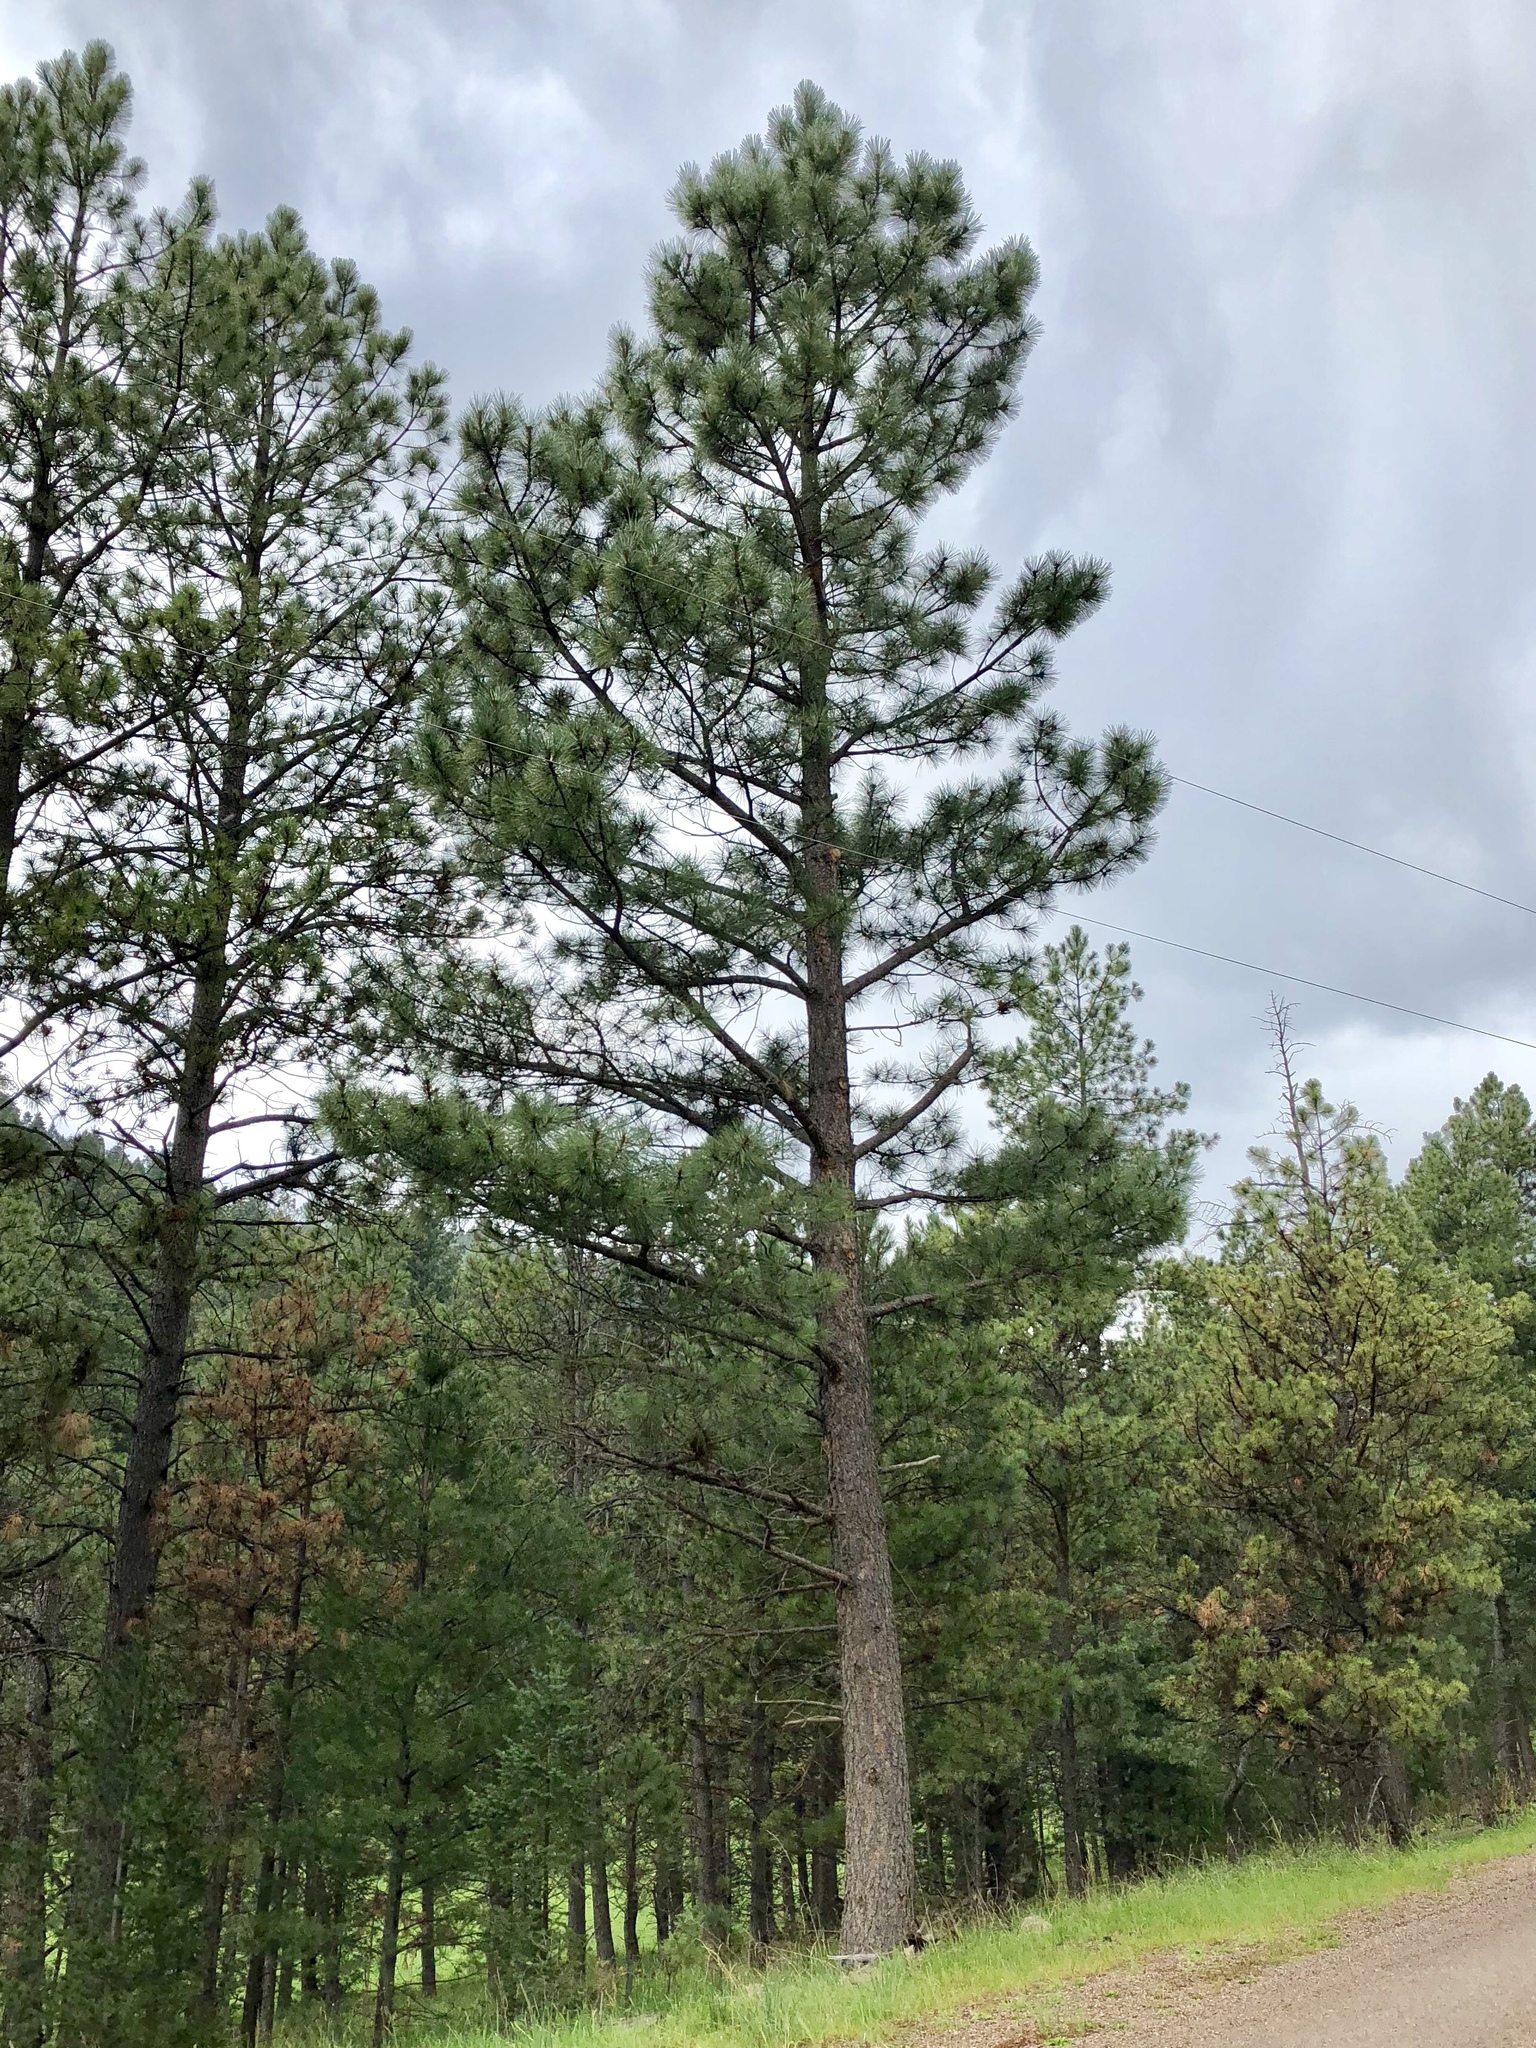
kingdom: Plantae
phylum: Tracheophyta
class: Pinopsida
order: Pinales
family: Pinaceae
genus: Pinus
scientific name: Pinus ponderosa
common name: Western yellow-pine
